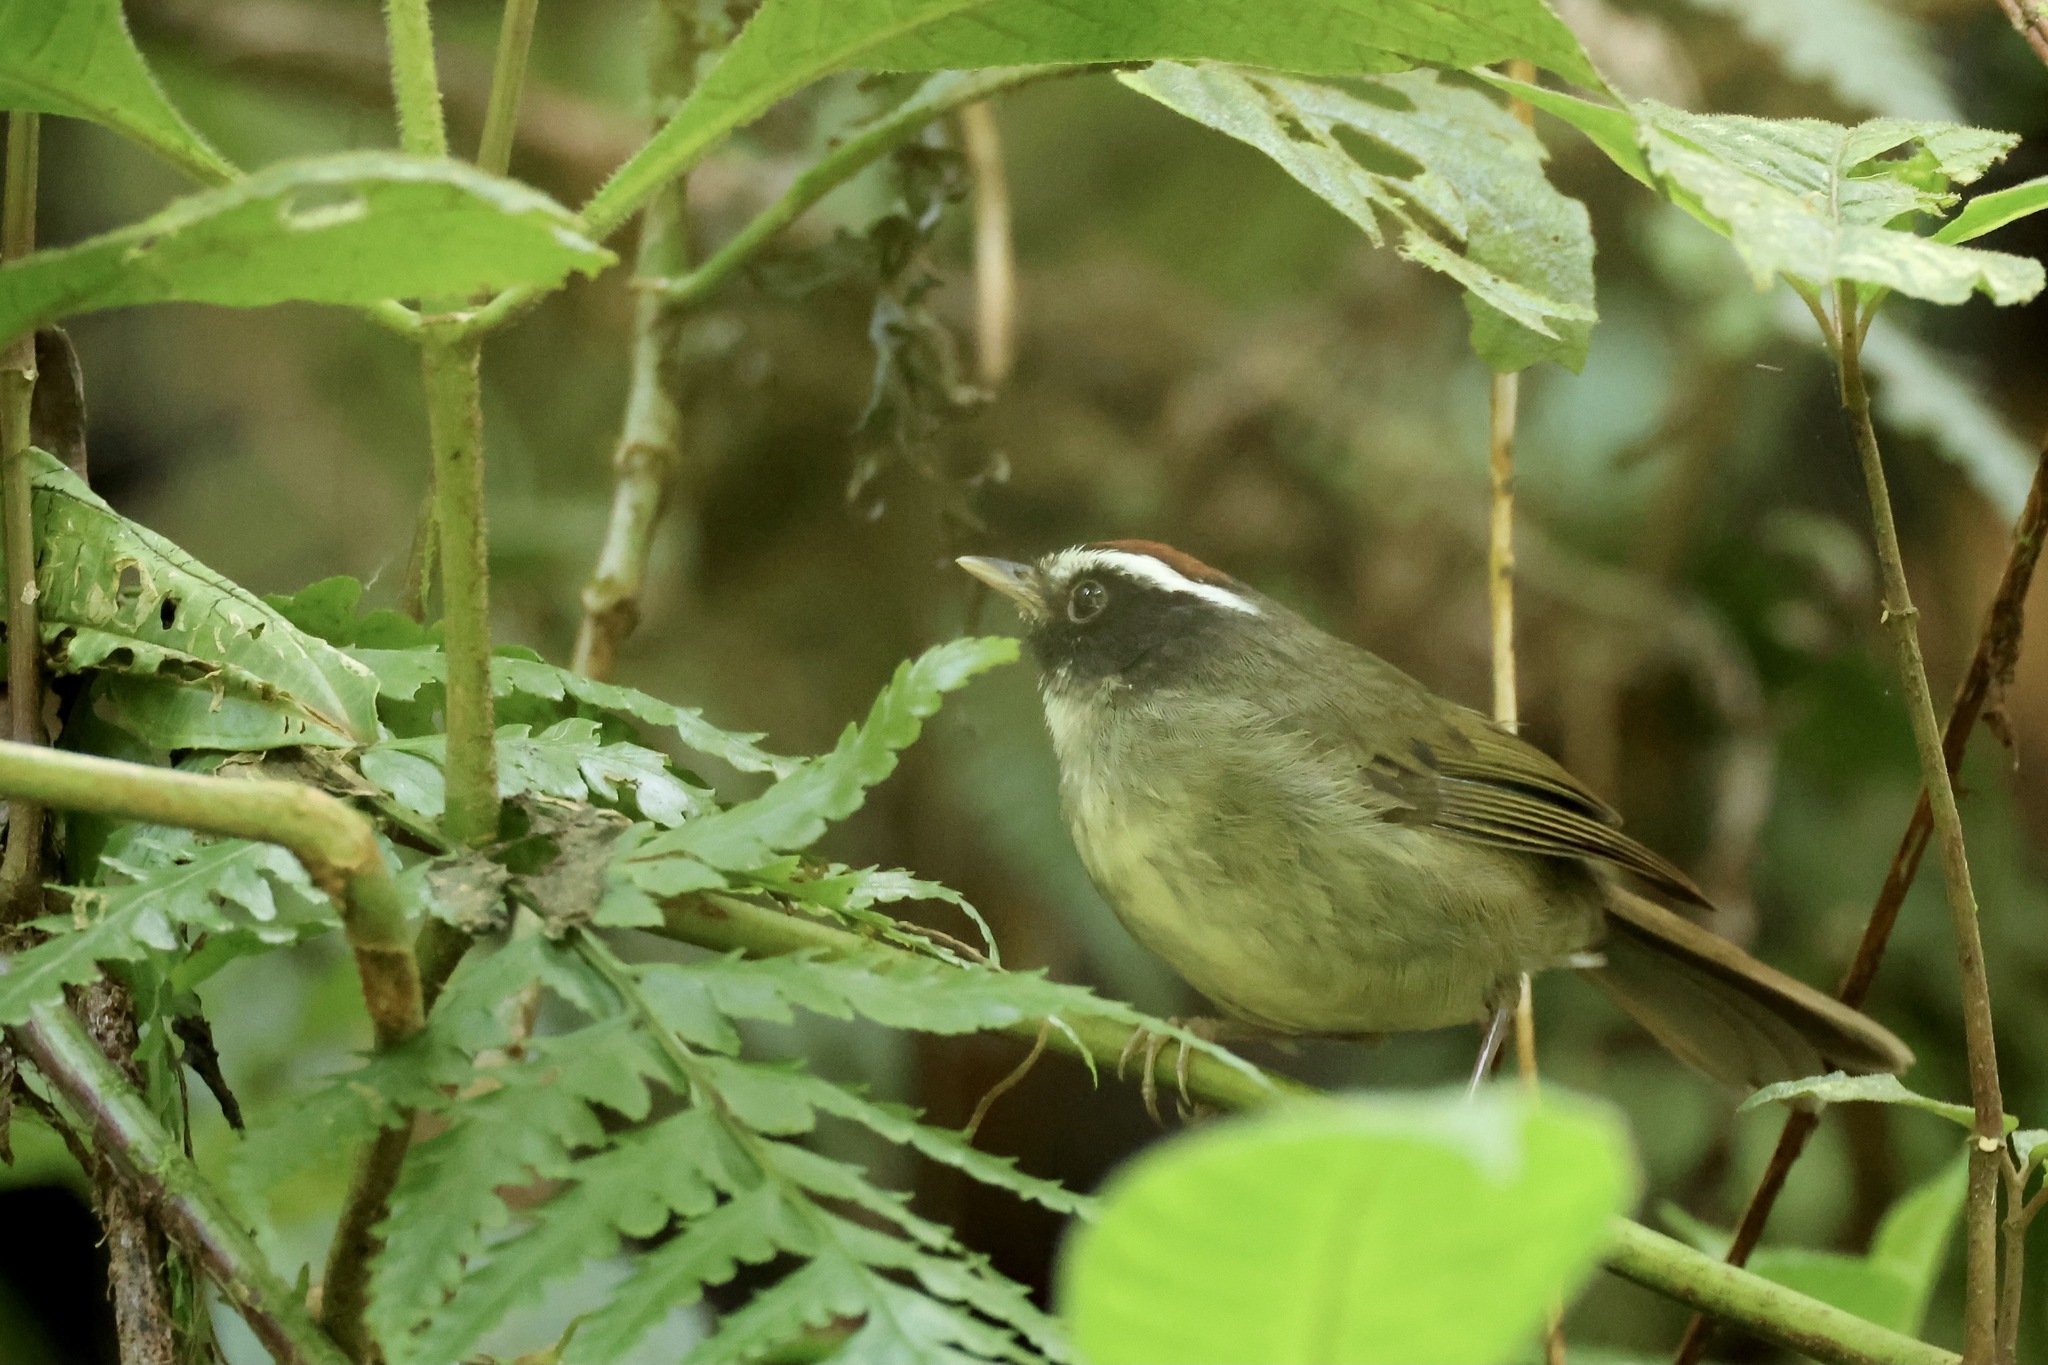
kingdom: Animalia
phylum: Chordata
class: Aves
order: Passeriformes
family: Parulidae
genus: Basileuterus
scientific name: Basileuterus melanogenys
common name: Black-cheeked warbler
